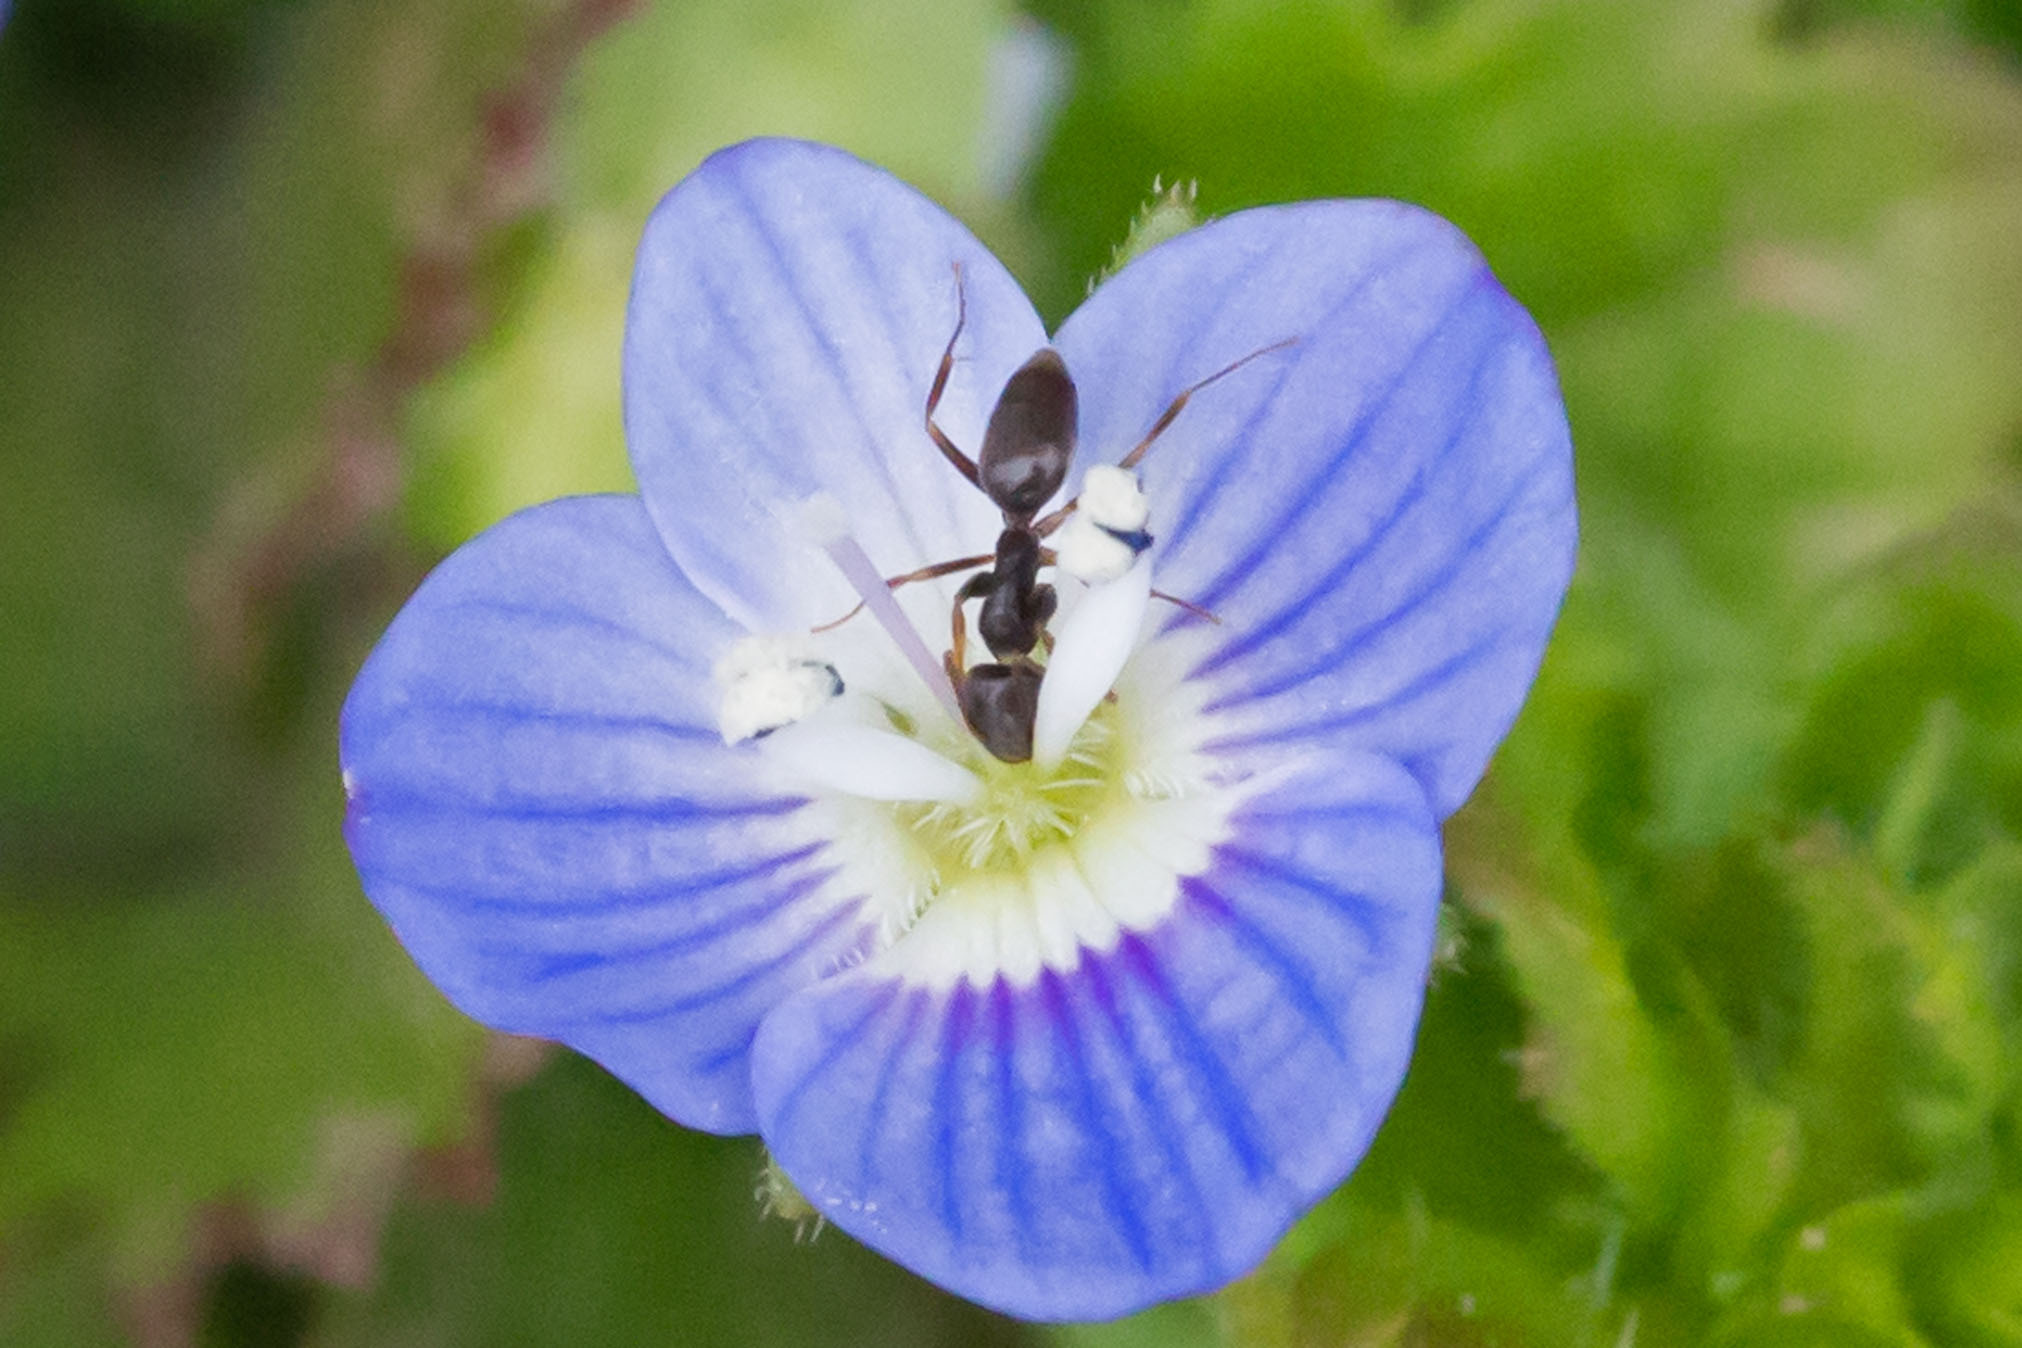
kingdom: Animalia
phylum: Arthropoda
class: Insecta
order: Hymenoptera
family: Formicidae
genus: Tapinoma
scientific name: Tapinoma sessile
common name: Odorous house ant
